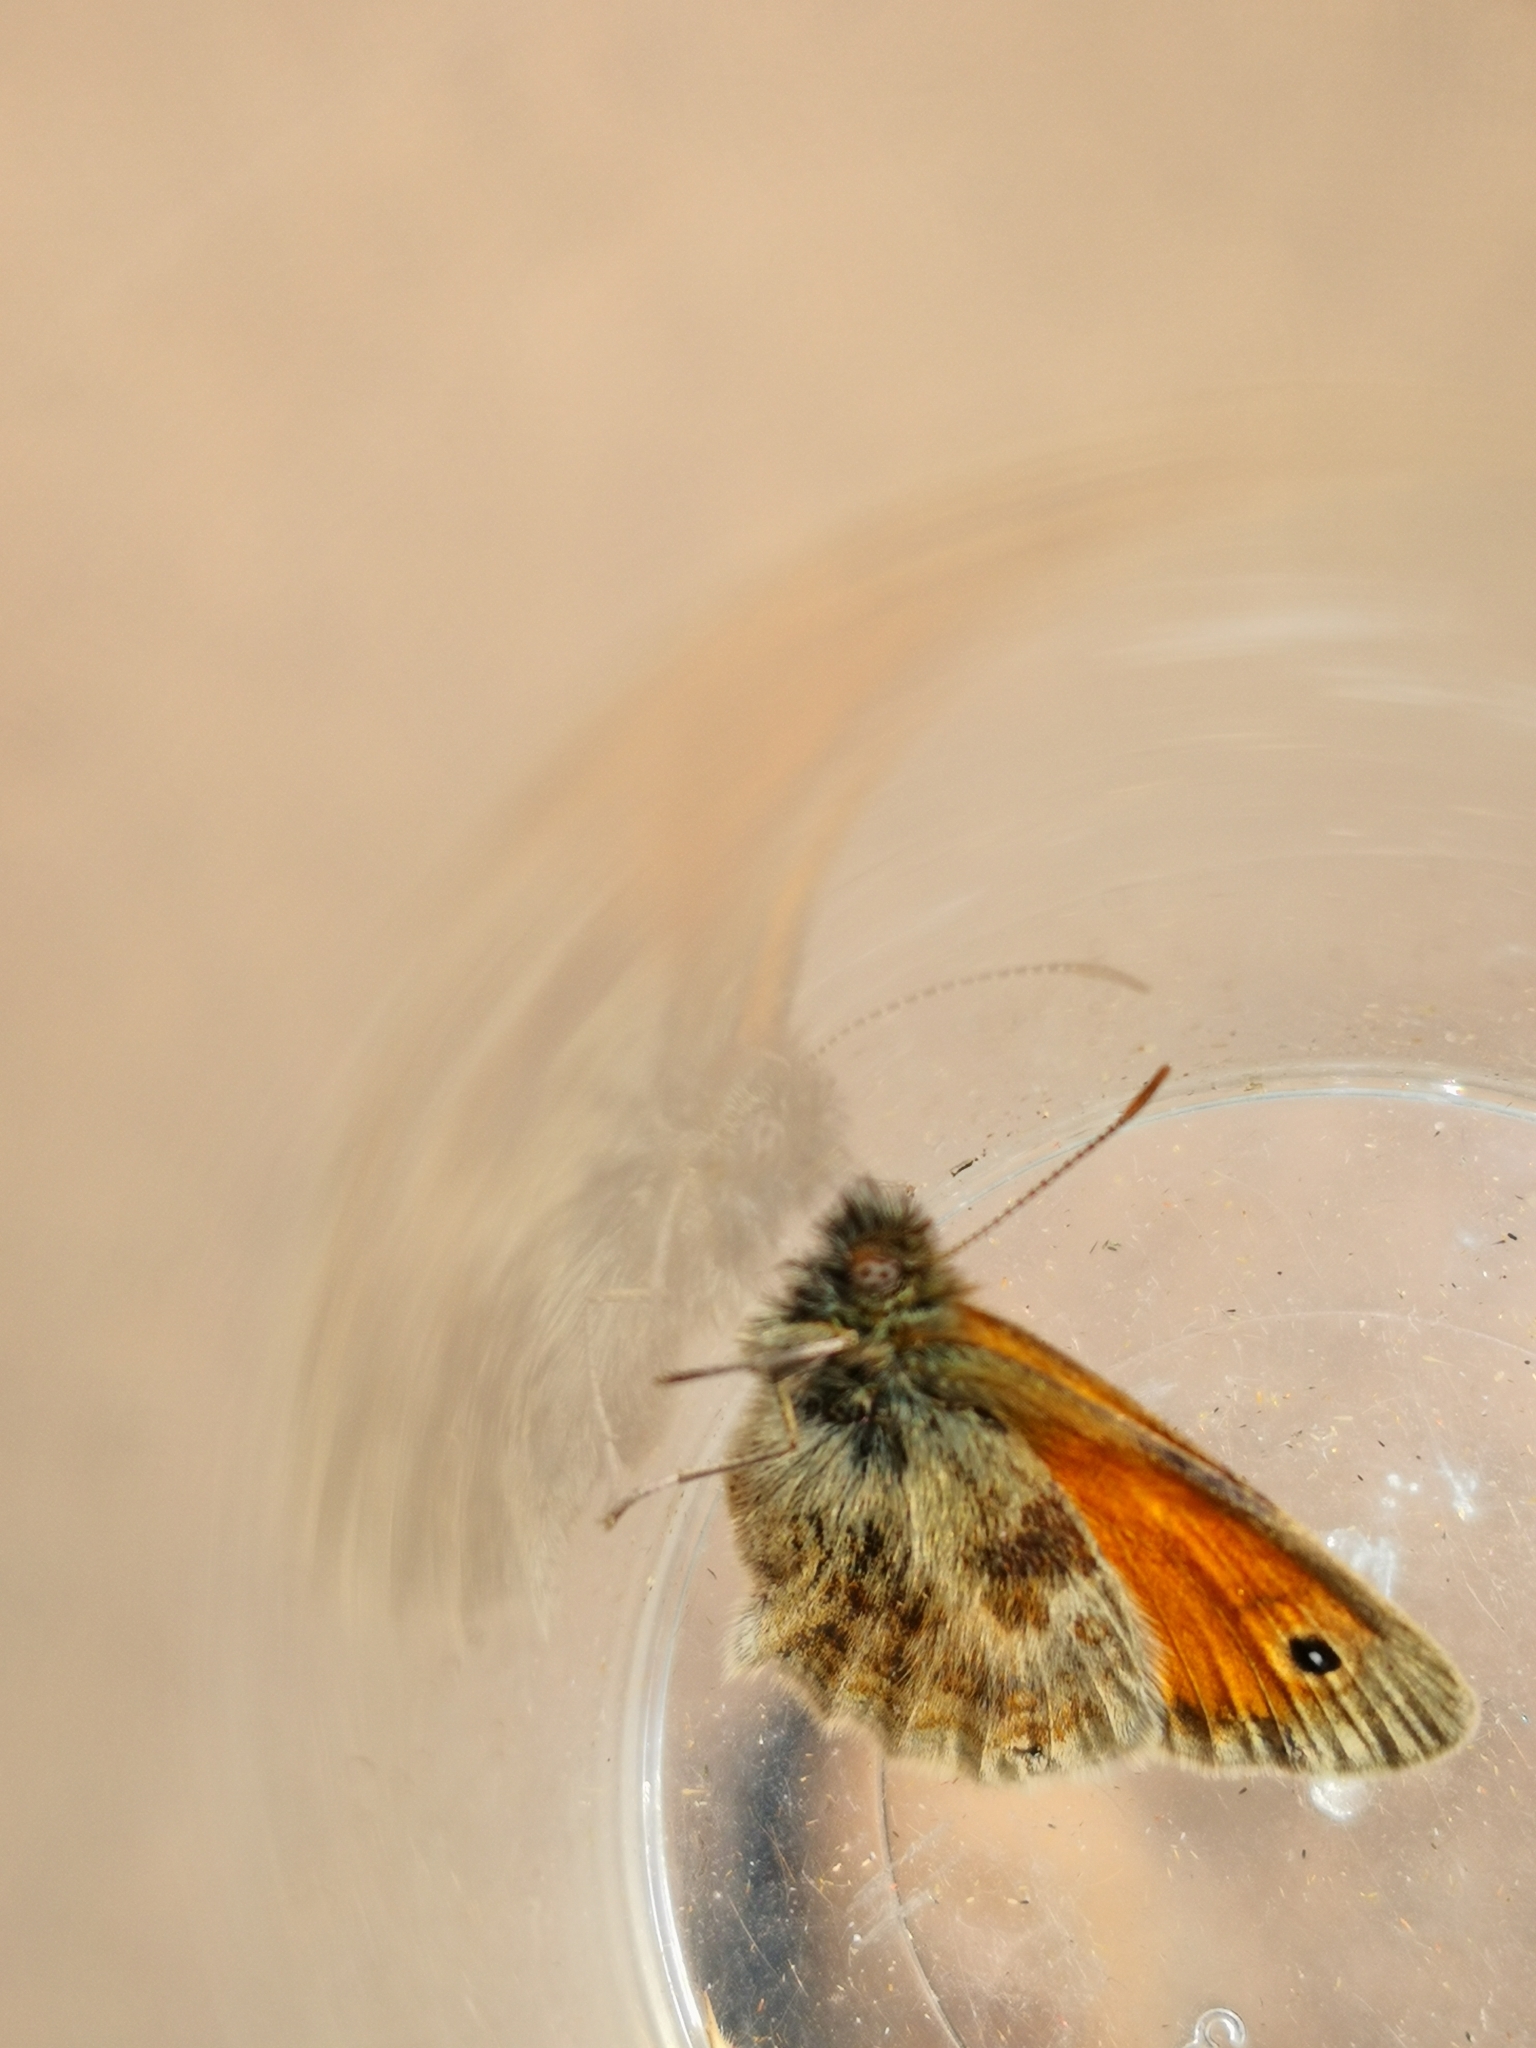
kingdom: Animalia
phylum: Arthropoda
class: Insecta
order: Lepidoptera
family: Nymphalidae
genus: Coenonympha
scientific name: Coenonympha pamphilus
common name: Small heath
